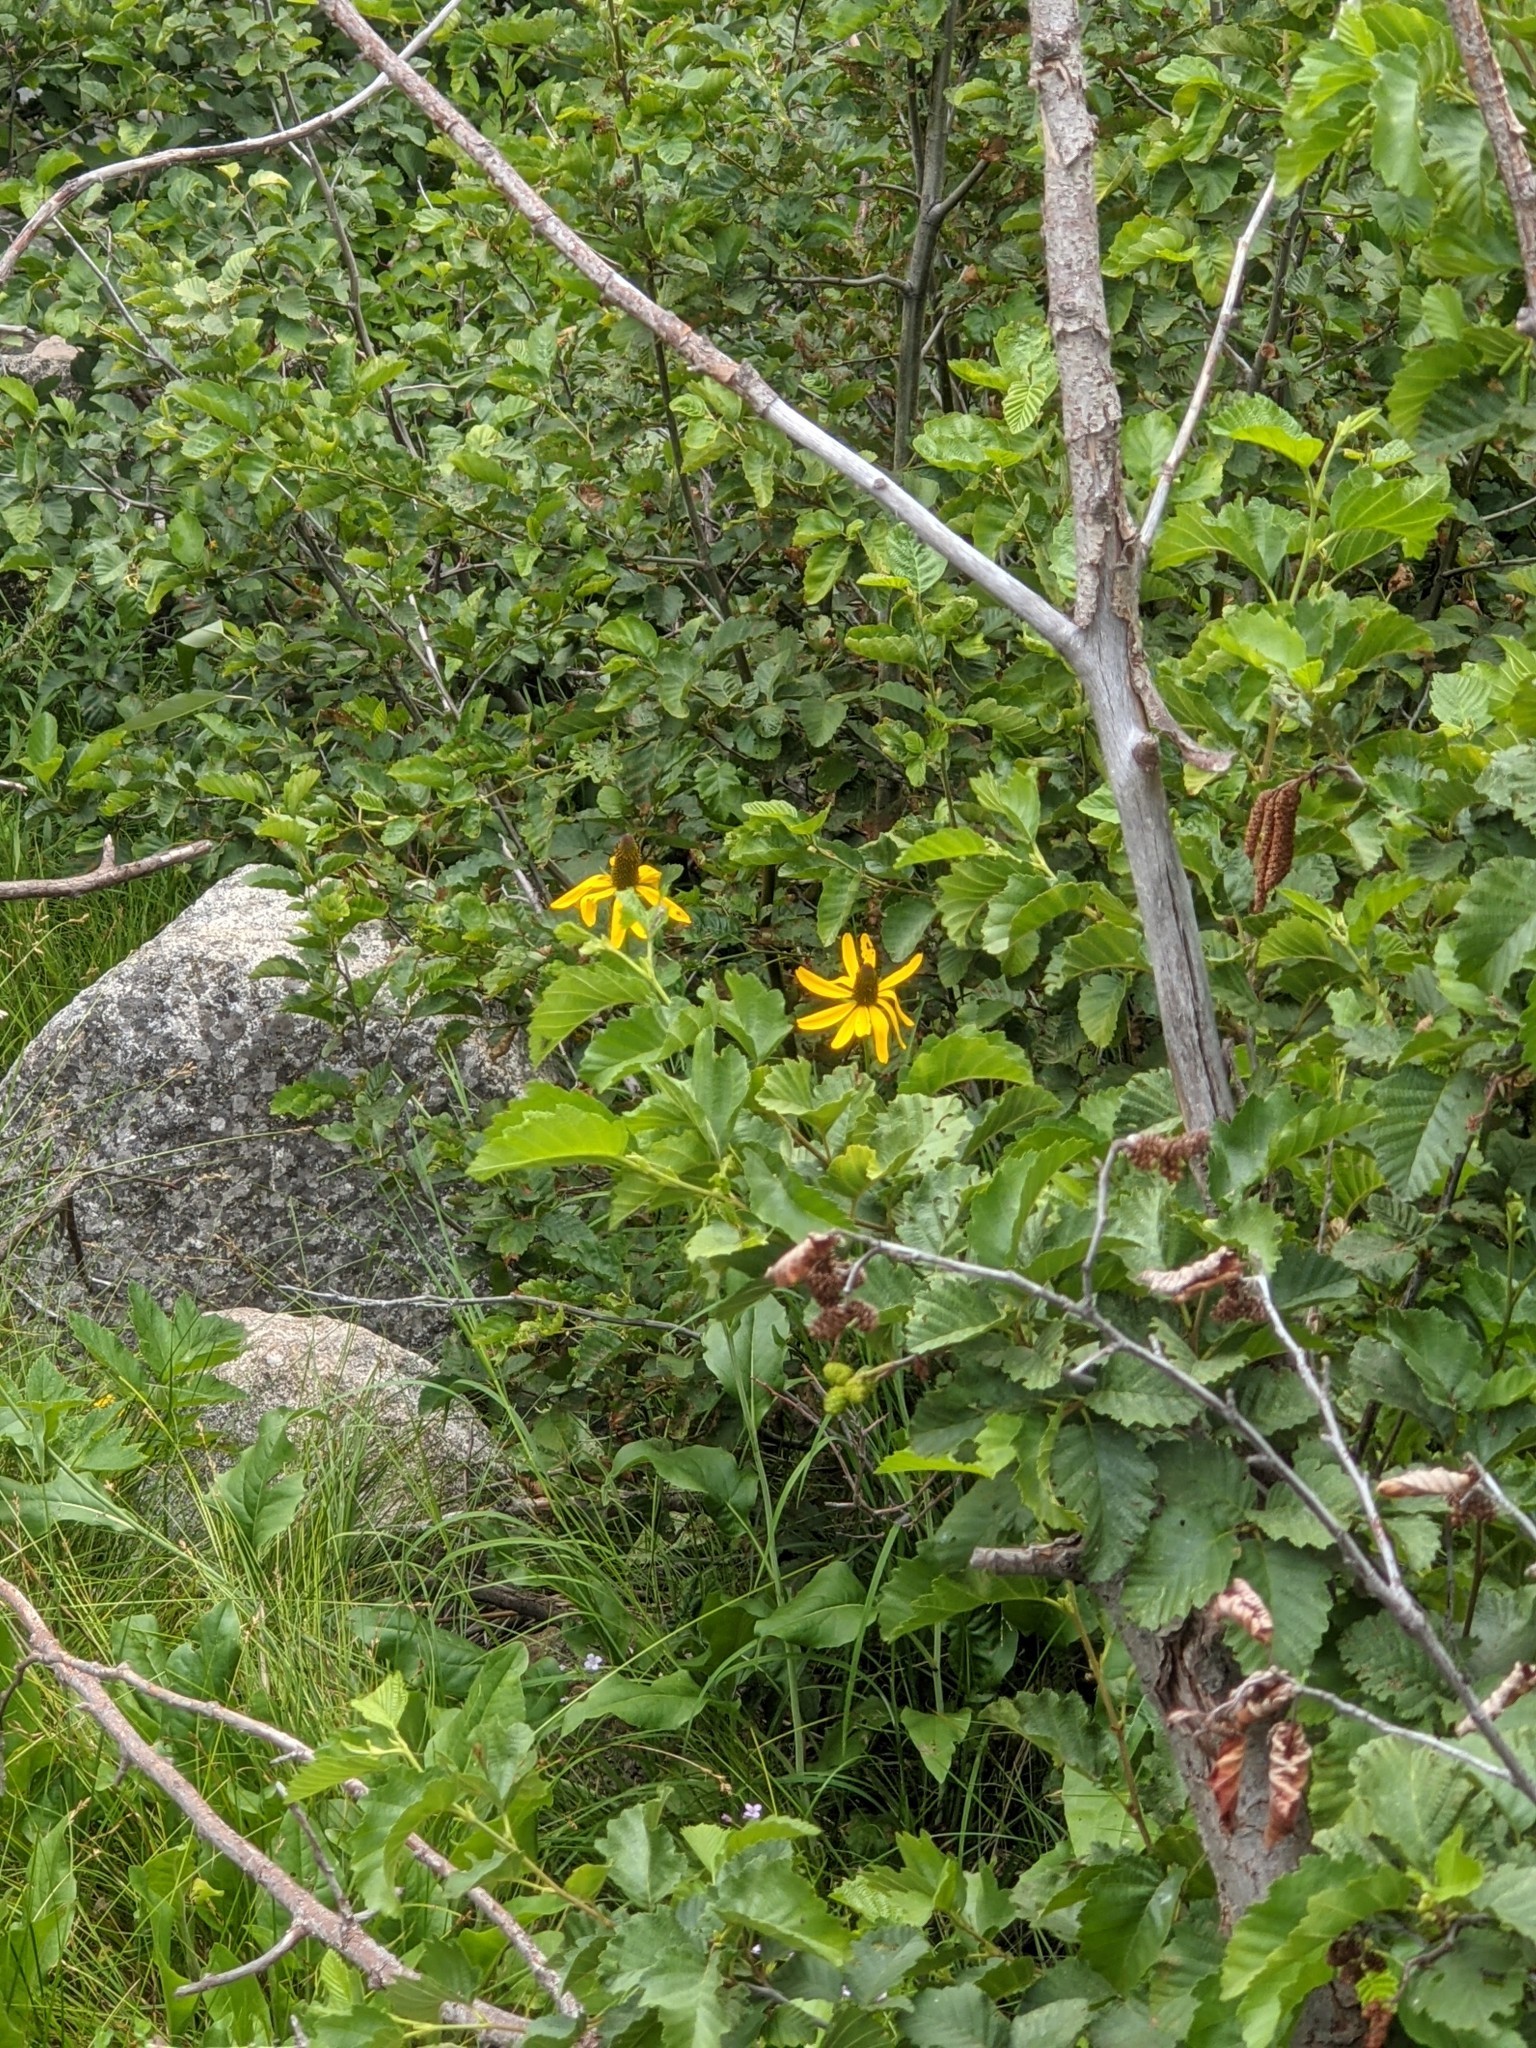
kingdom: Plantae
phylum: Tracheophyta
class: Magnoliopsida
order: Asterales
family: Asteraceae
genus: Rudbeckia
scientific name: Rudbeckia californica
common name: California coneflower
